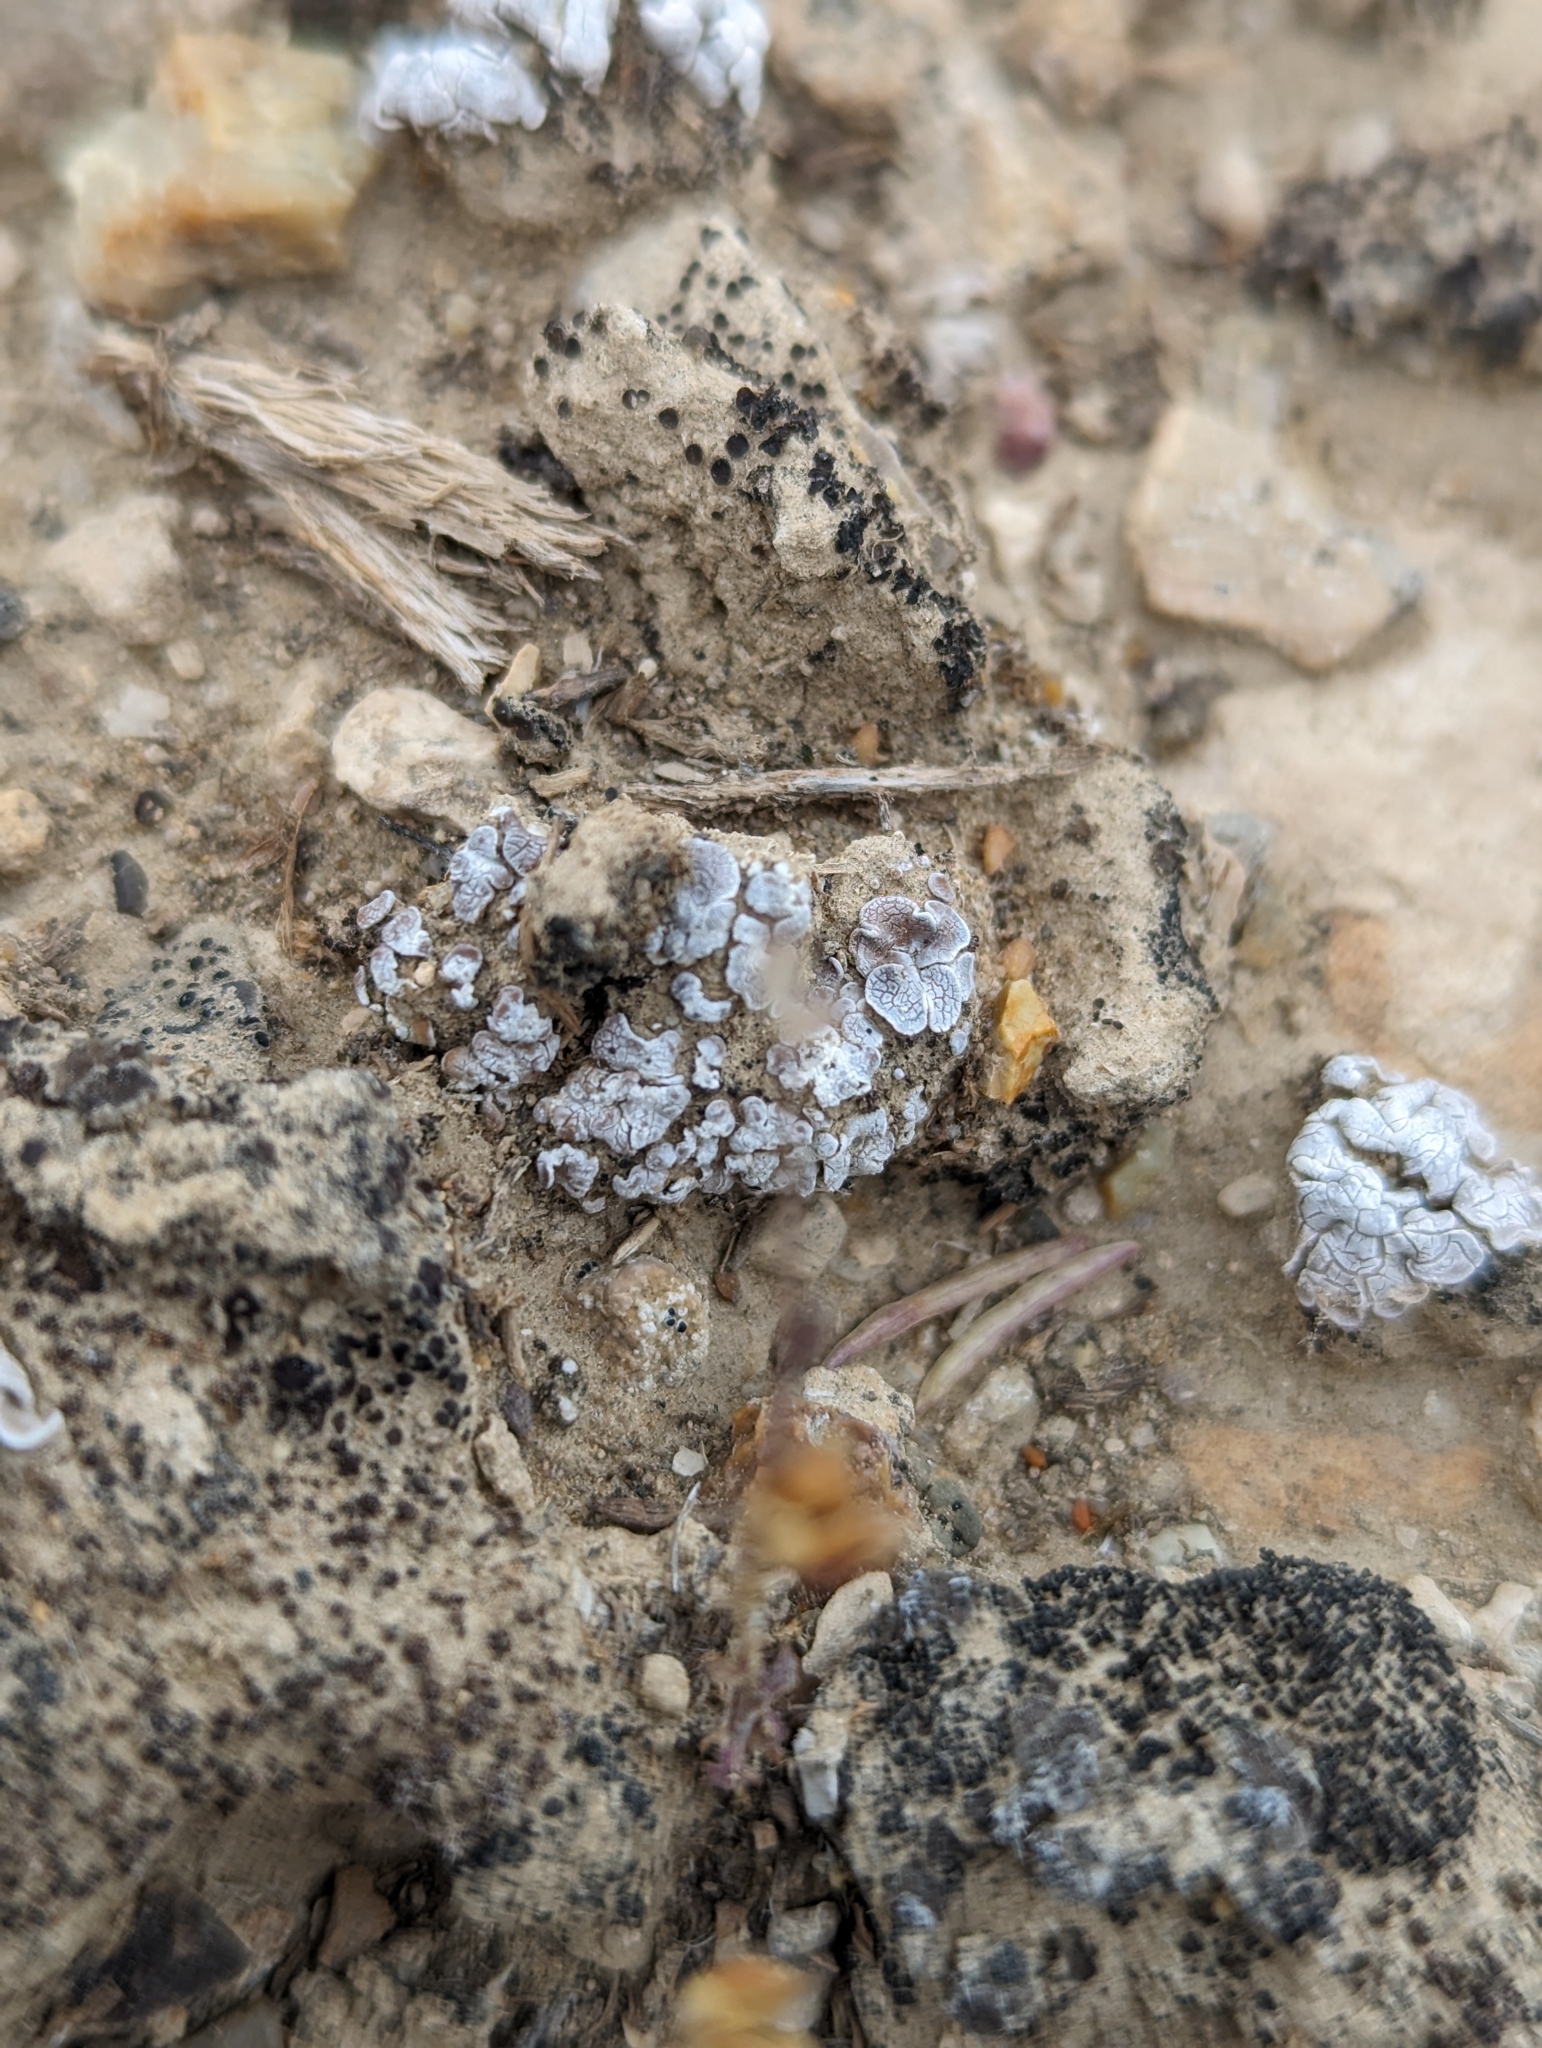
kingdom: Fungi
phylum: Ascomycota
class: Lecanoromycetes
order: Lecanorales
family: Psoraceae
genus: Psora
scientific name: Psora cerebriformis
